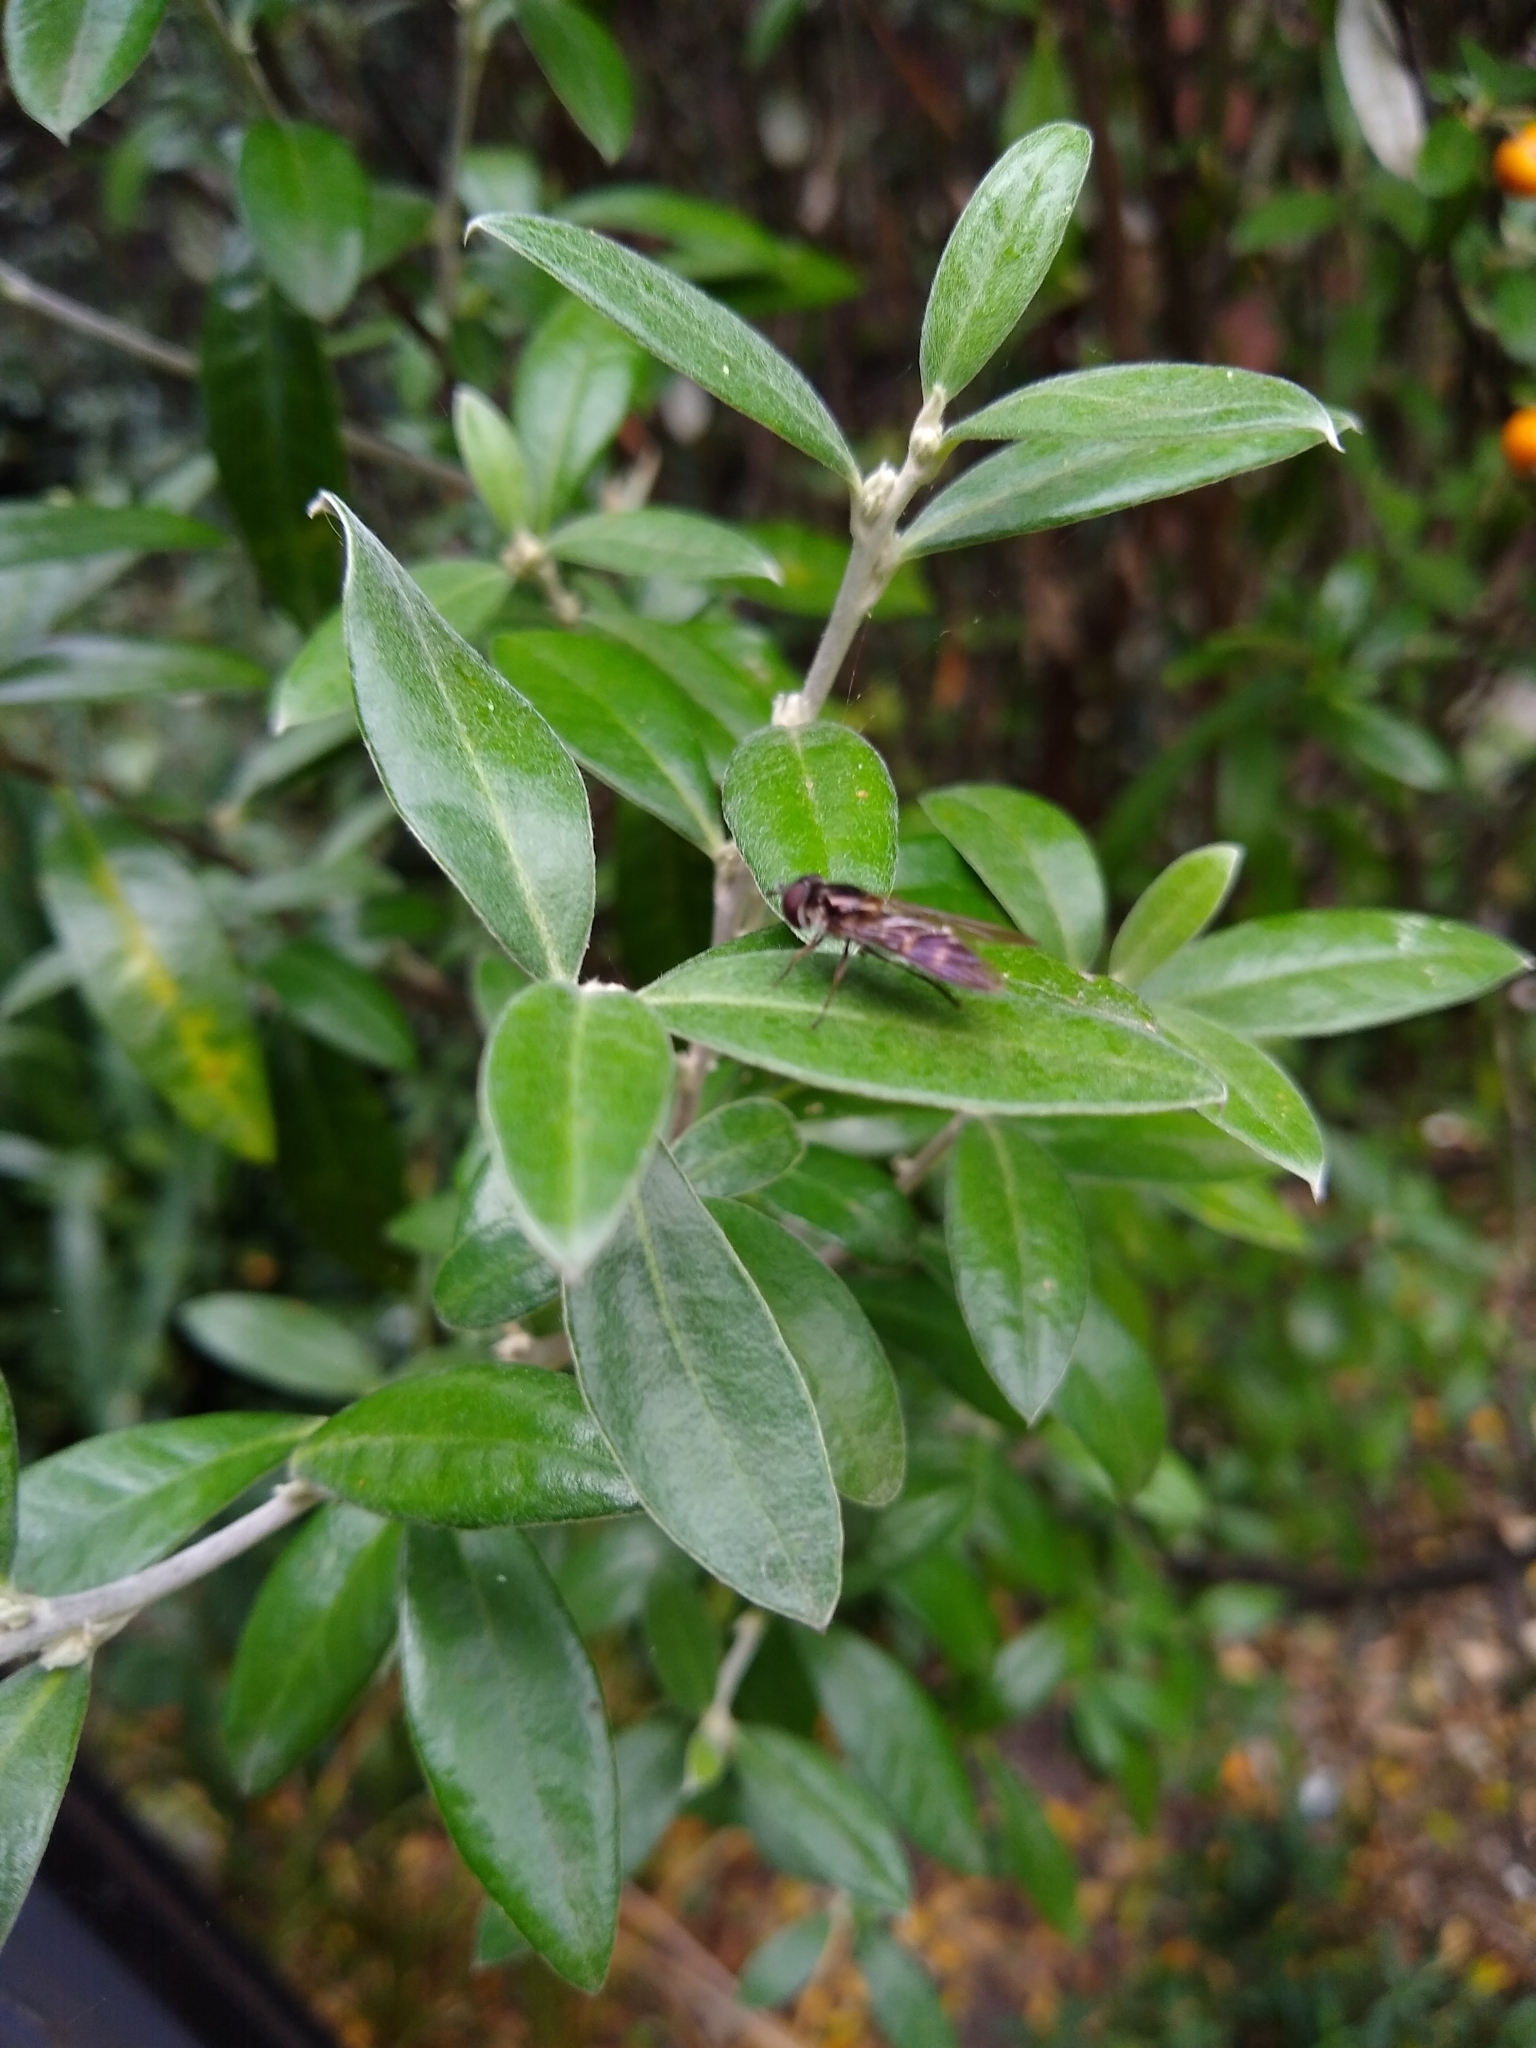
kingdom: Animalia
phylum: Arthropoda
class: Insecta
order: Diptera
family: Syrphidae
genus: Melangyna
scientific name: Melangyna novaezelandiae
